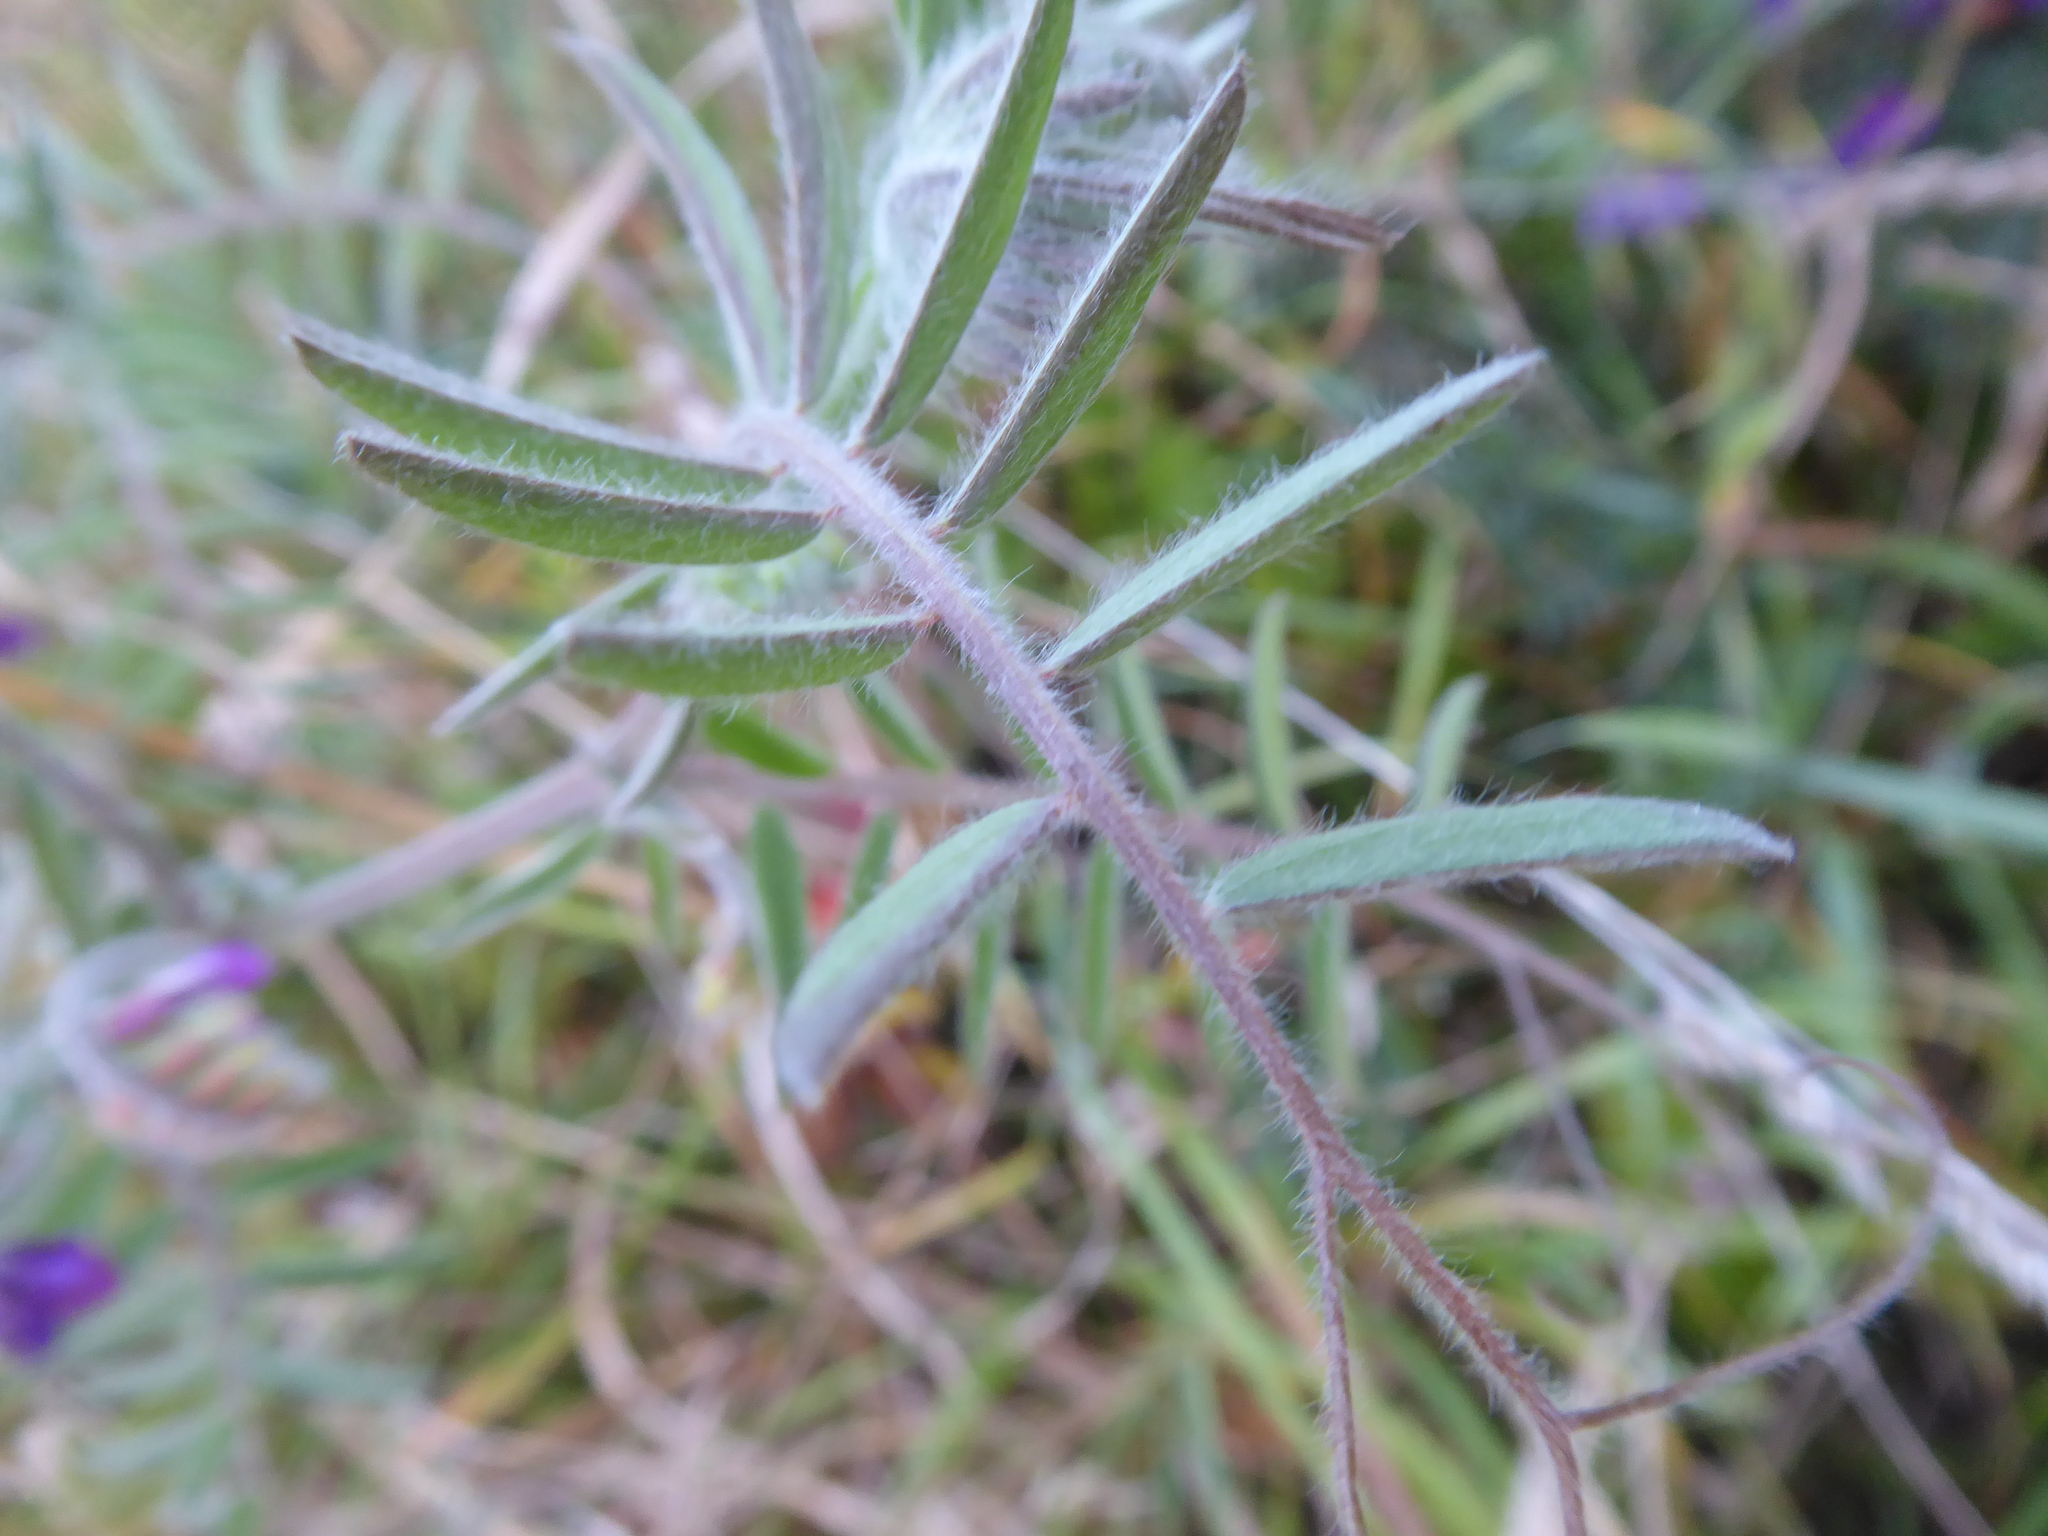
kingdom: Plantae
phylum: Tracheophyta
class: Magnoliopsida
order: Fabales
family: Fabaceae
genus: Vicia
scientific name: Vicia villosa
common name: Fodder vetch
